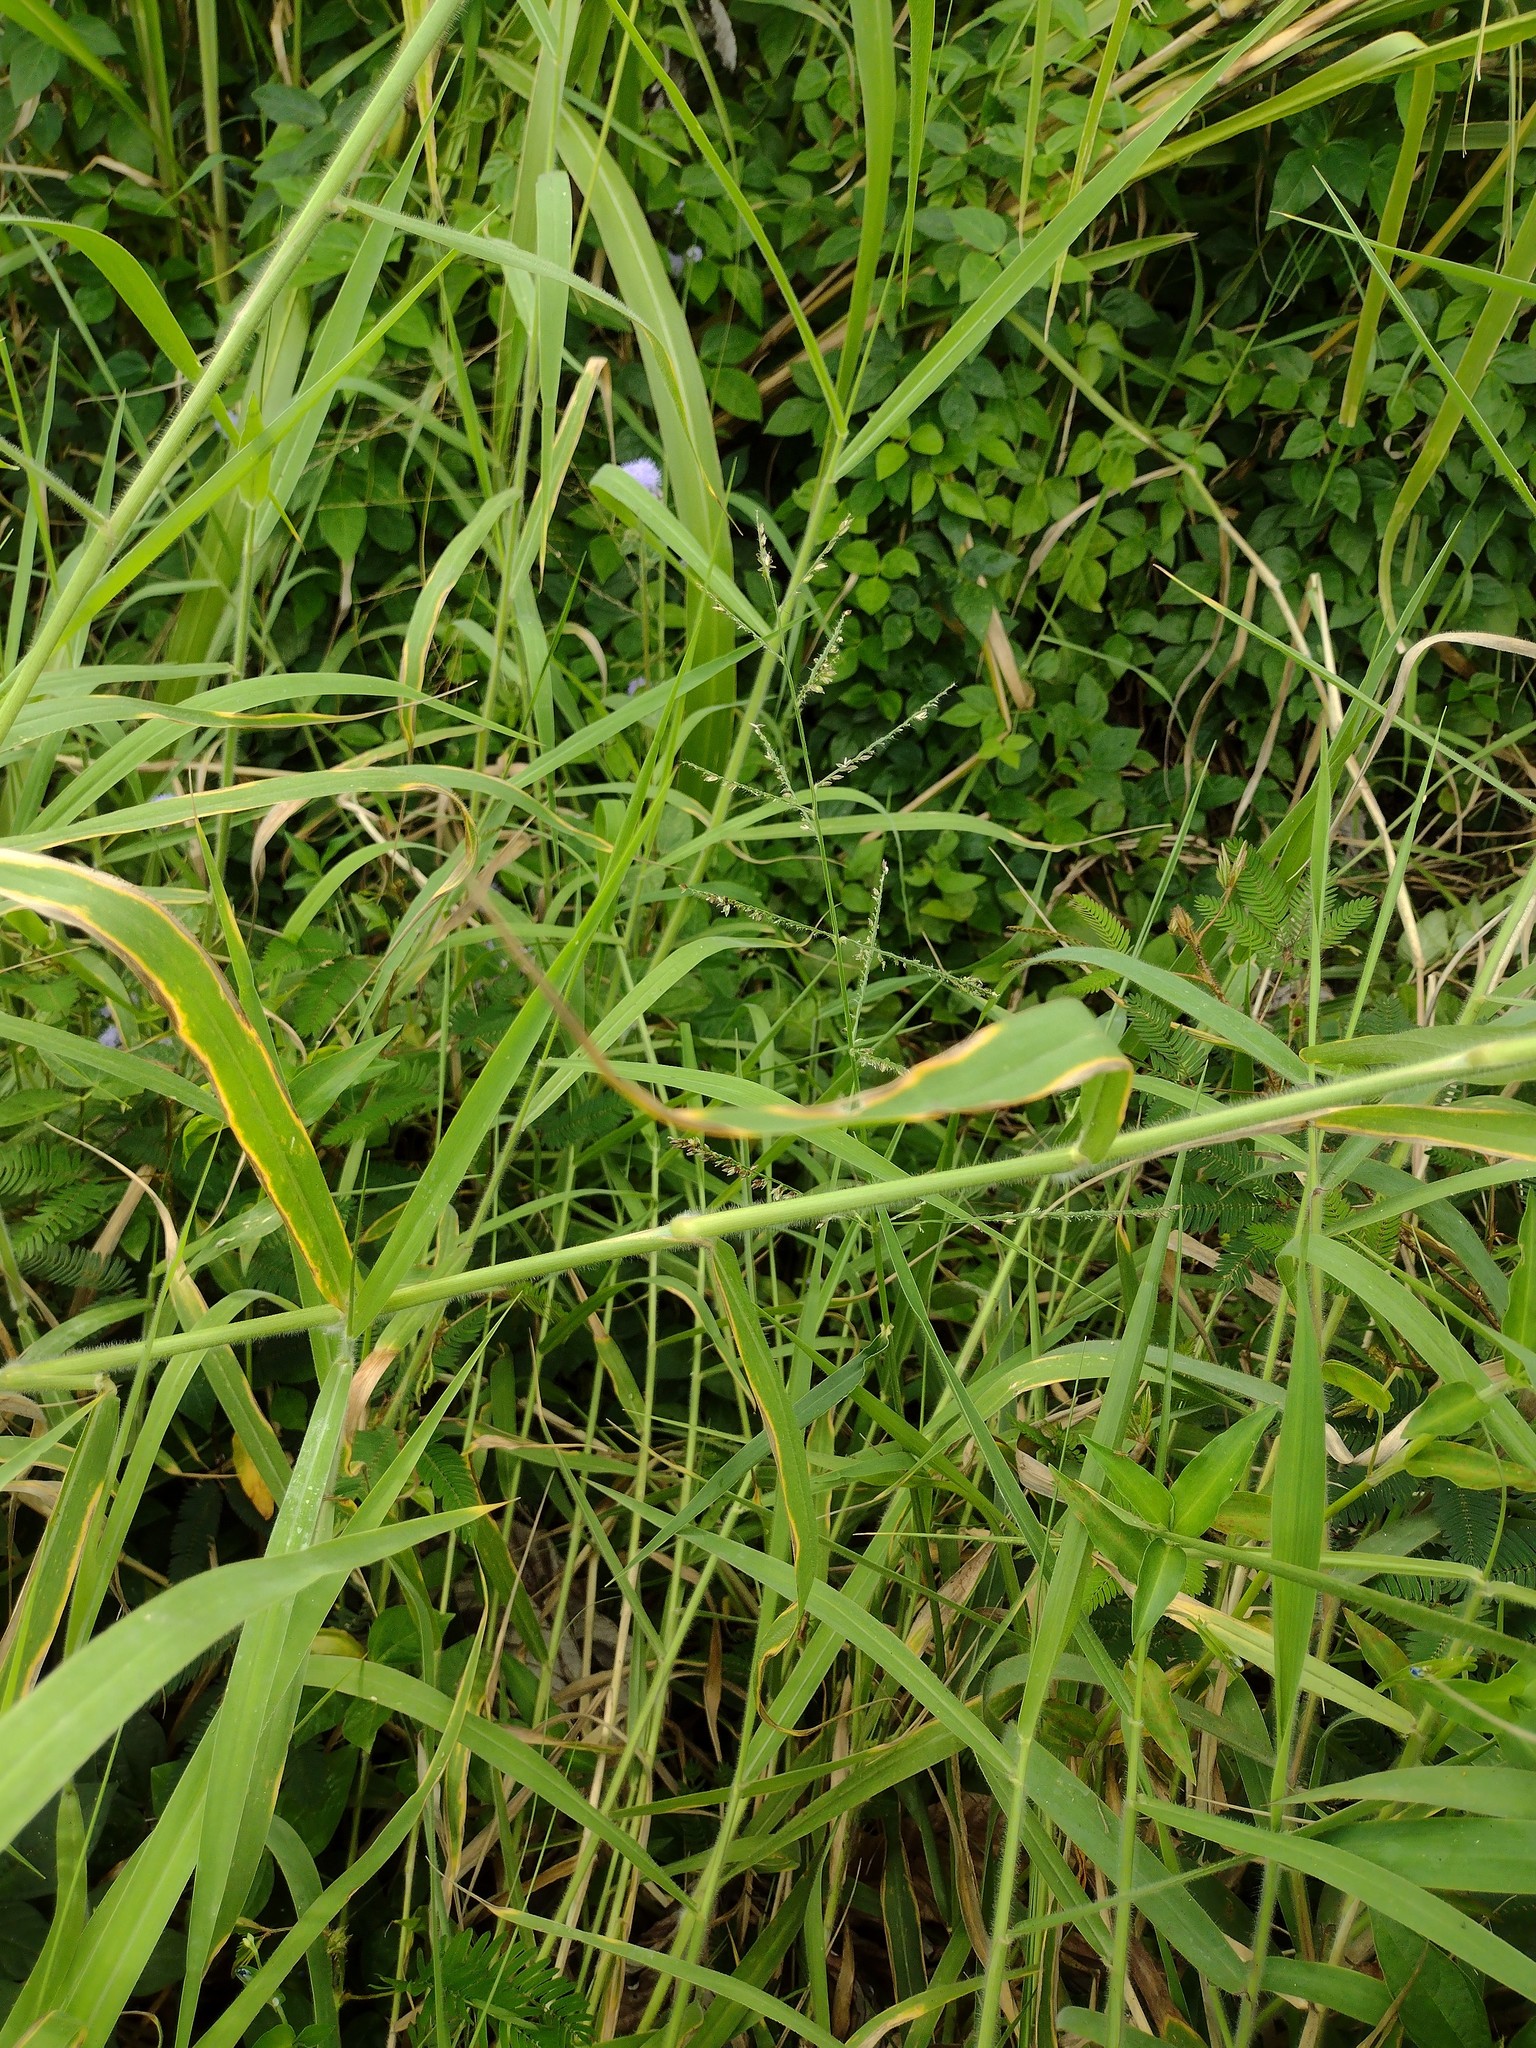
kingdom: Plantae
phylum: Tracheophyta
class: Liliopsida
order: Poales
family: Poaceae
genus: Urochloa
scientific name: Urochloa mutica
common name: Para grass
